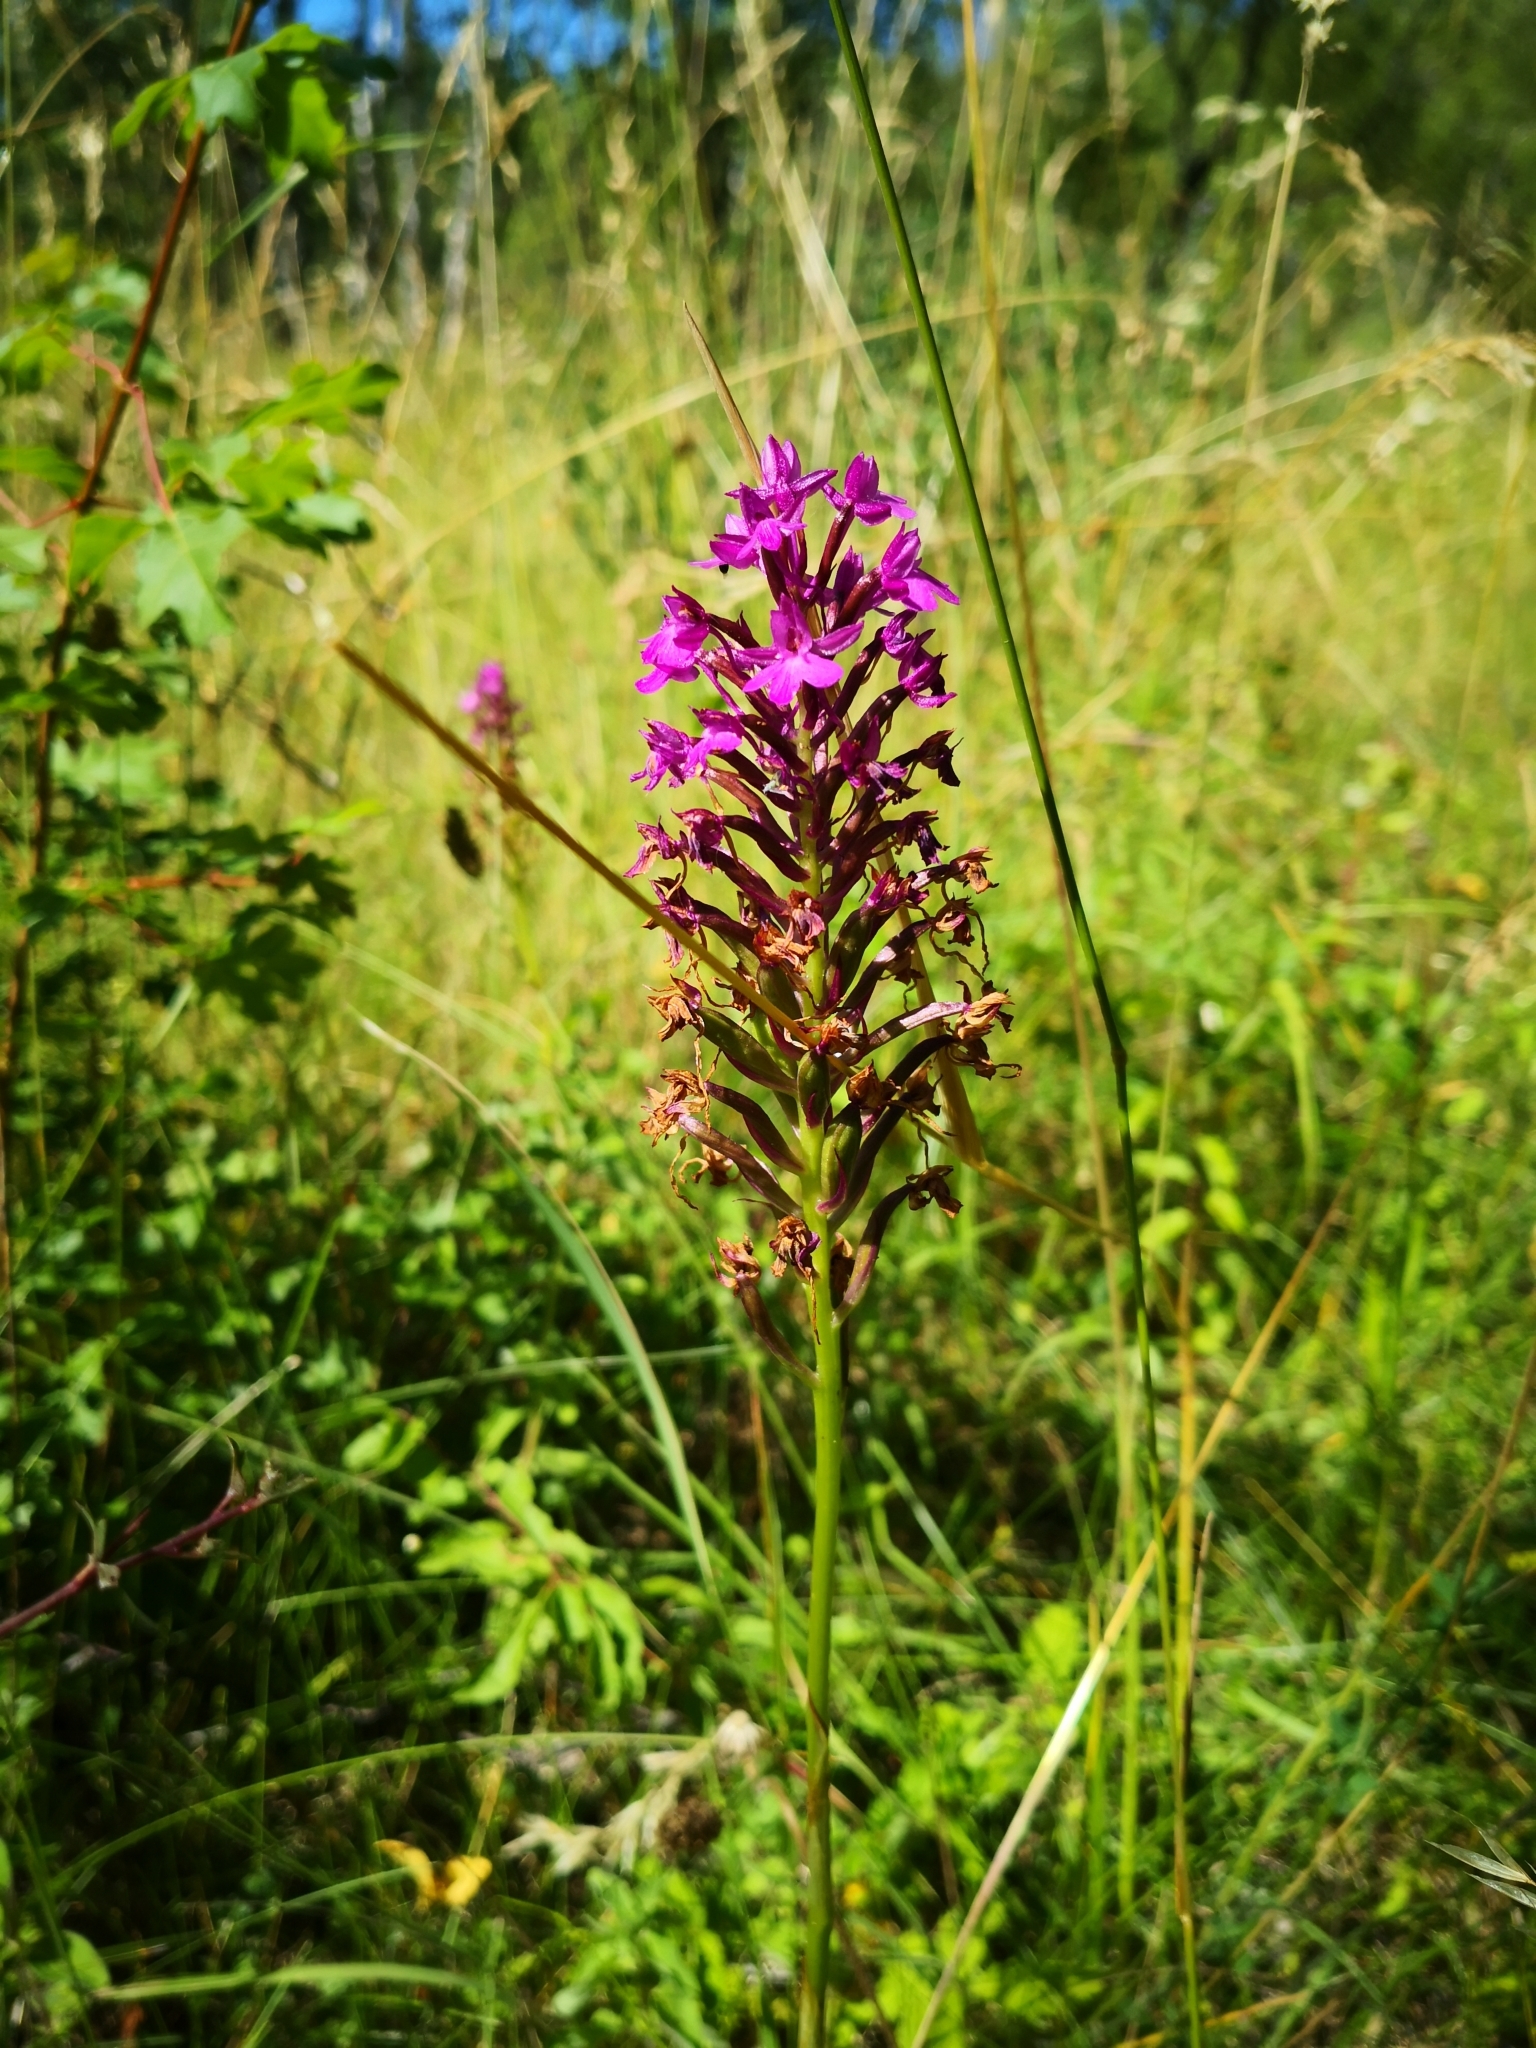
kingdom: Plantae
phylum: Tracheophyta
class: Liliopsida
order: Asparagales
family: Orchidaceae
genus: Anacamptis
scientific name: Anacamptis pyramidalis
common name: Pyramidal orchid
